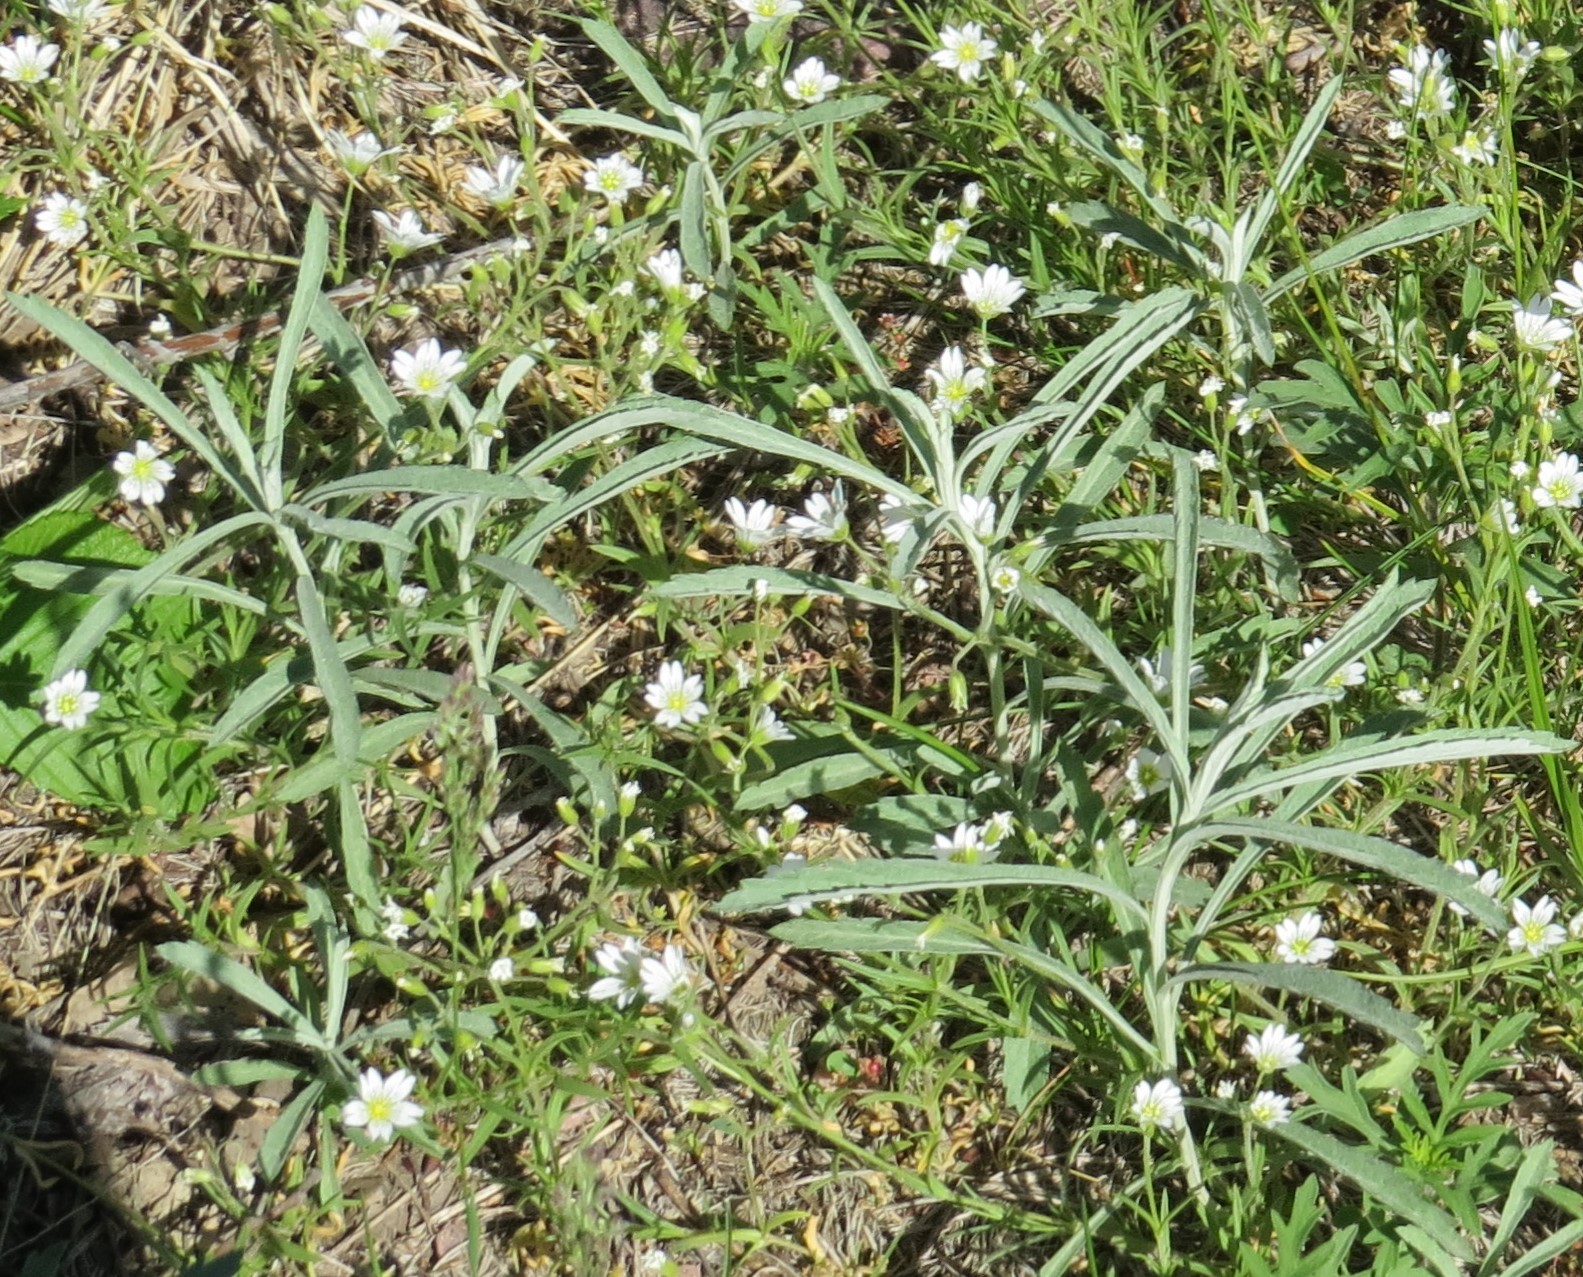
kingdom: Plantae
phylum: Tracheophyta
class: Magnoliopsida
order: Asterales
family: Asteraceae
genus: Artemisia
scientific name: Artemisia ludoviciana
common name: Western mugwort
